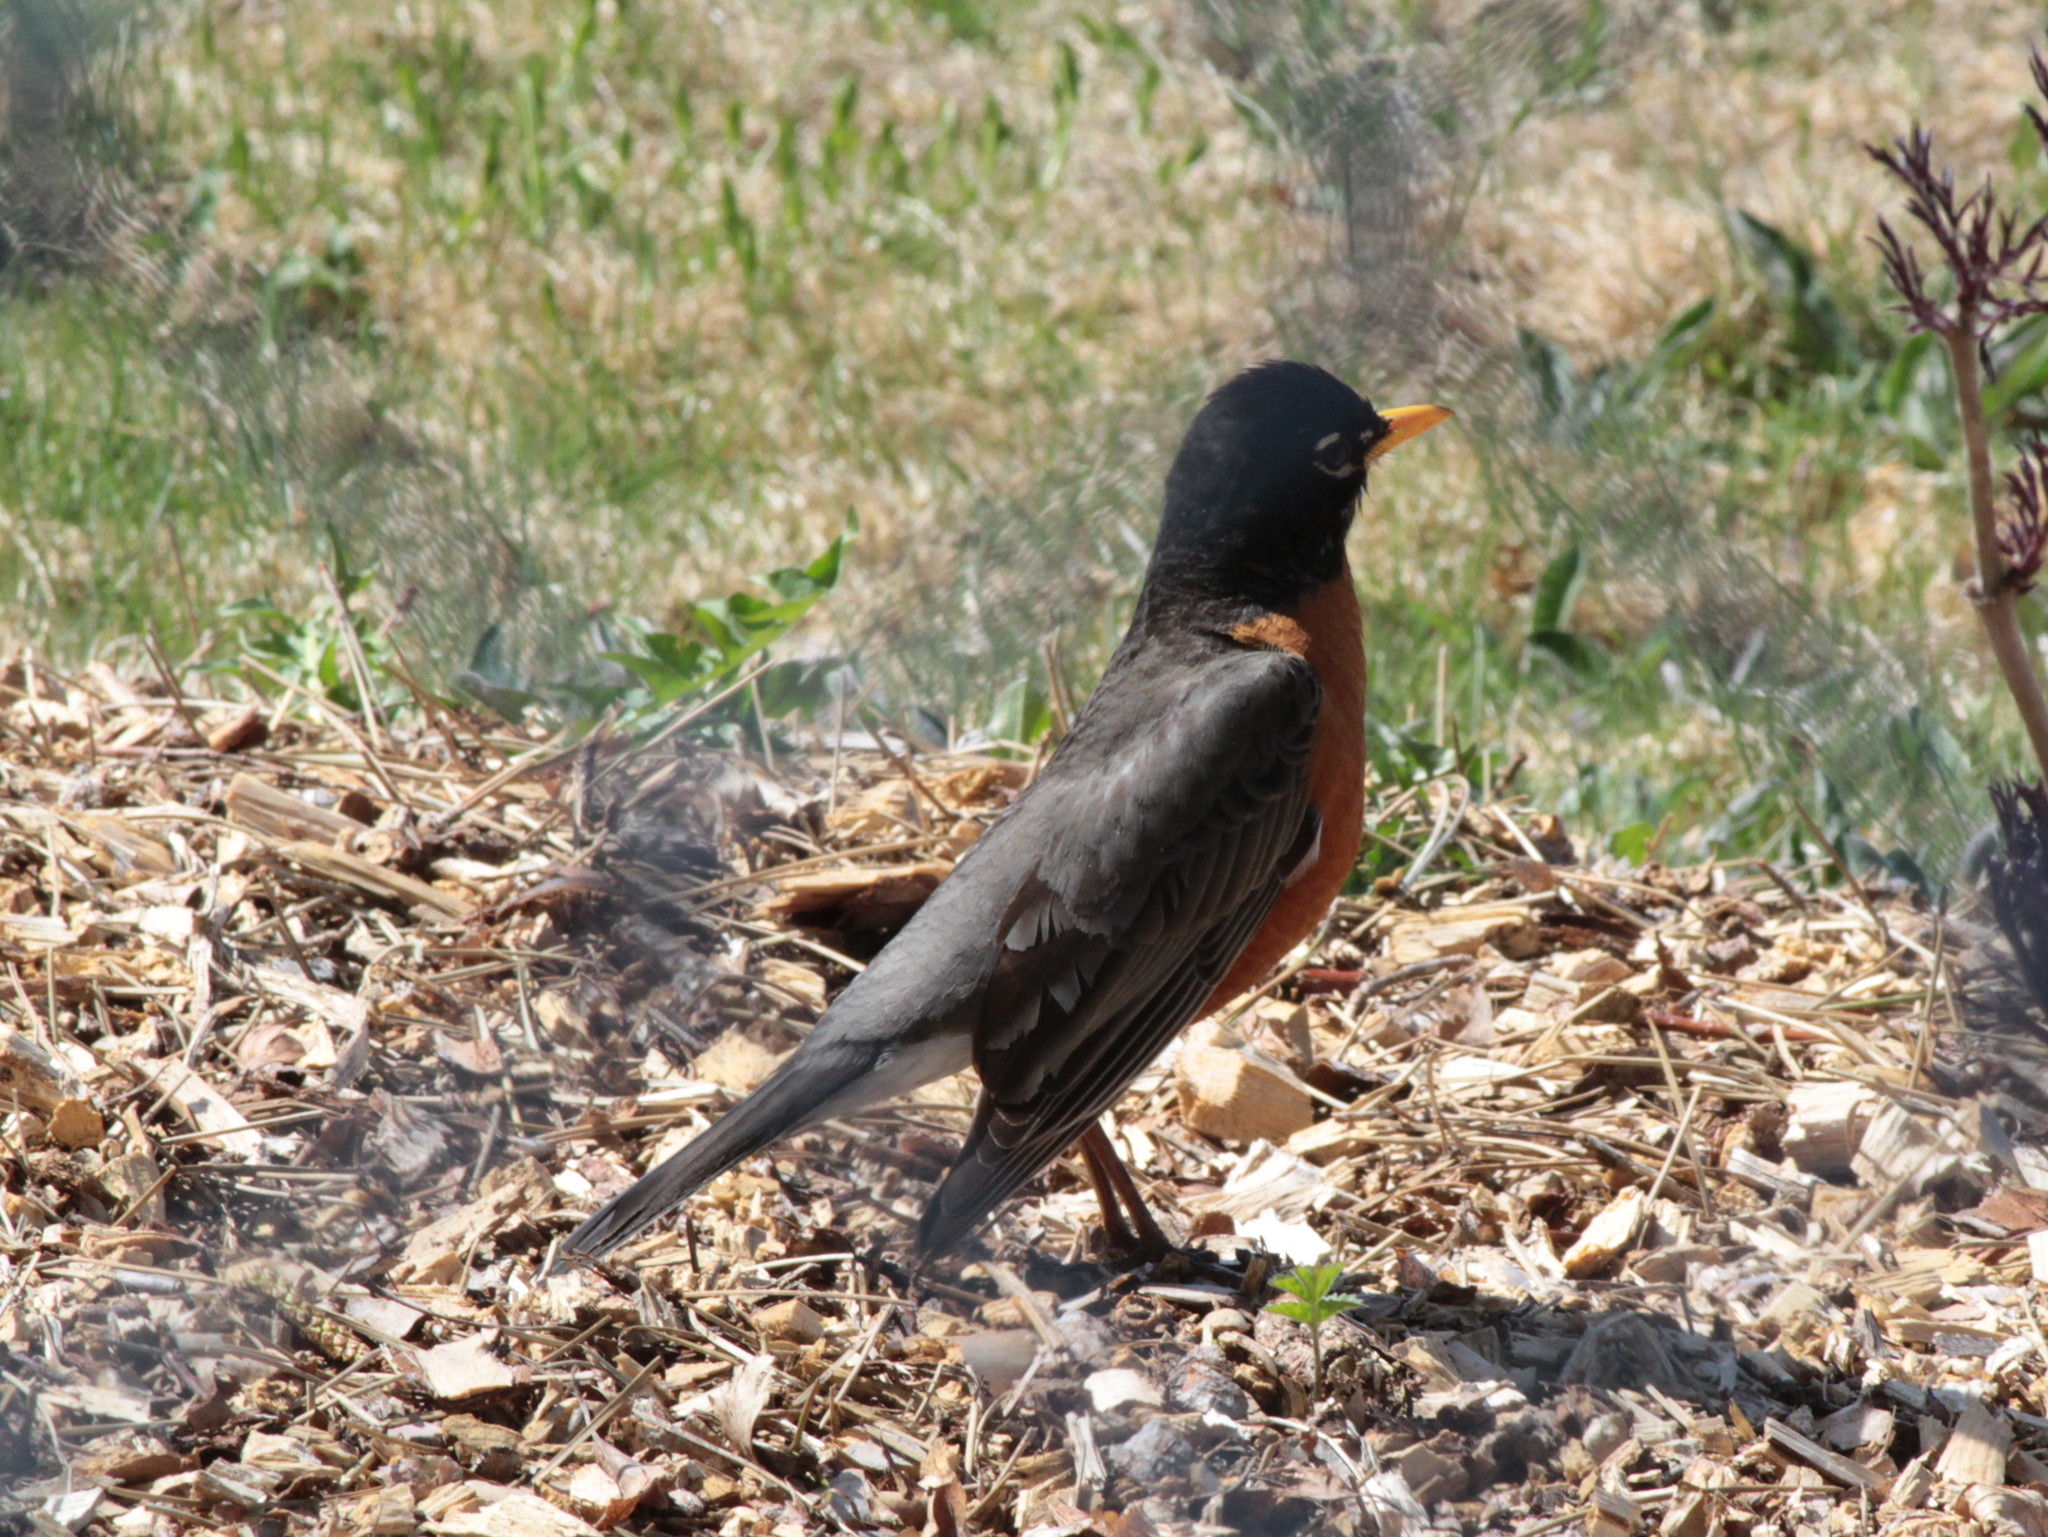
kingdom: Animalia
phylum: Chordata
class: Aves
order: Passeriformes
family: Turdidae
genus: Turdus
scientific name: Turdus migratorius
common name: American robin
